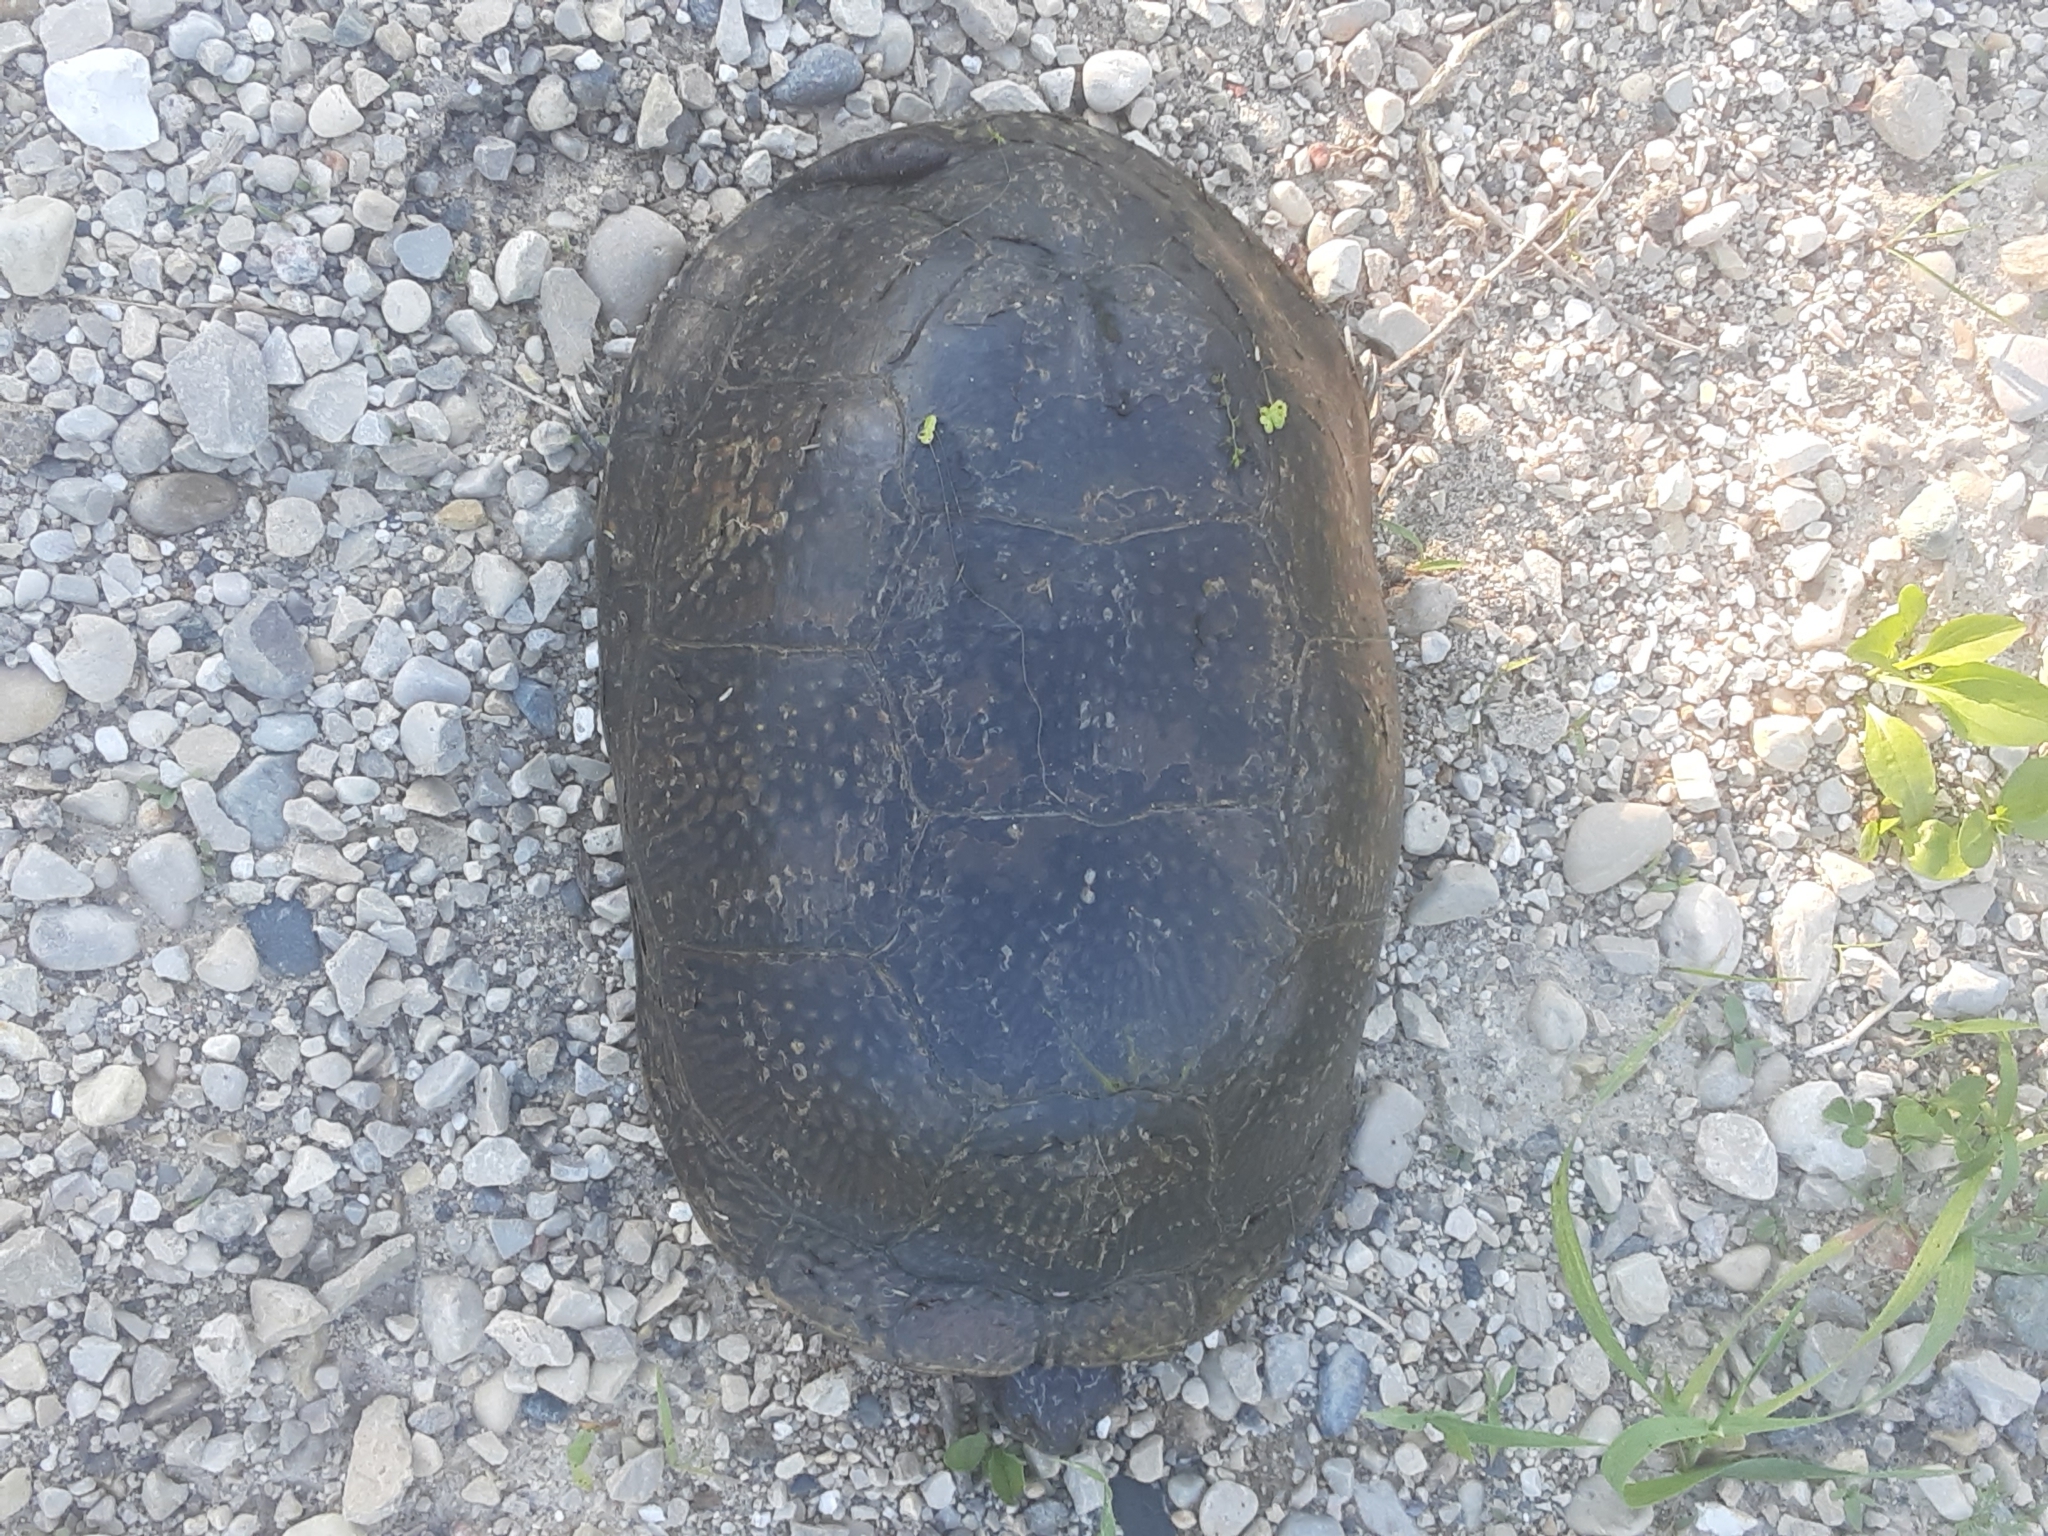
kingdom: Animalia
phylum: Chordata
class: Testudines
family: Emydidae
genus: Emys
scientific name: Emys blandingii
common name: Blanding's turtle
